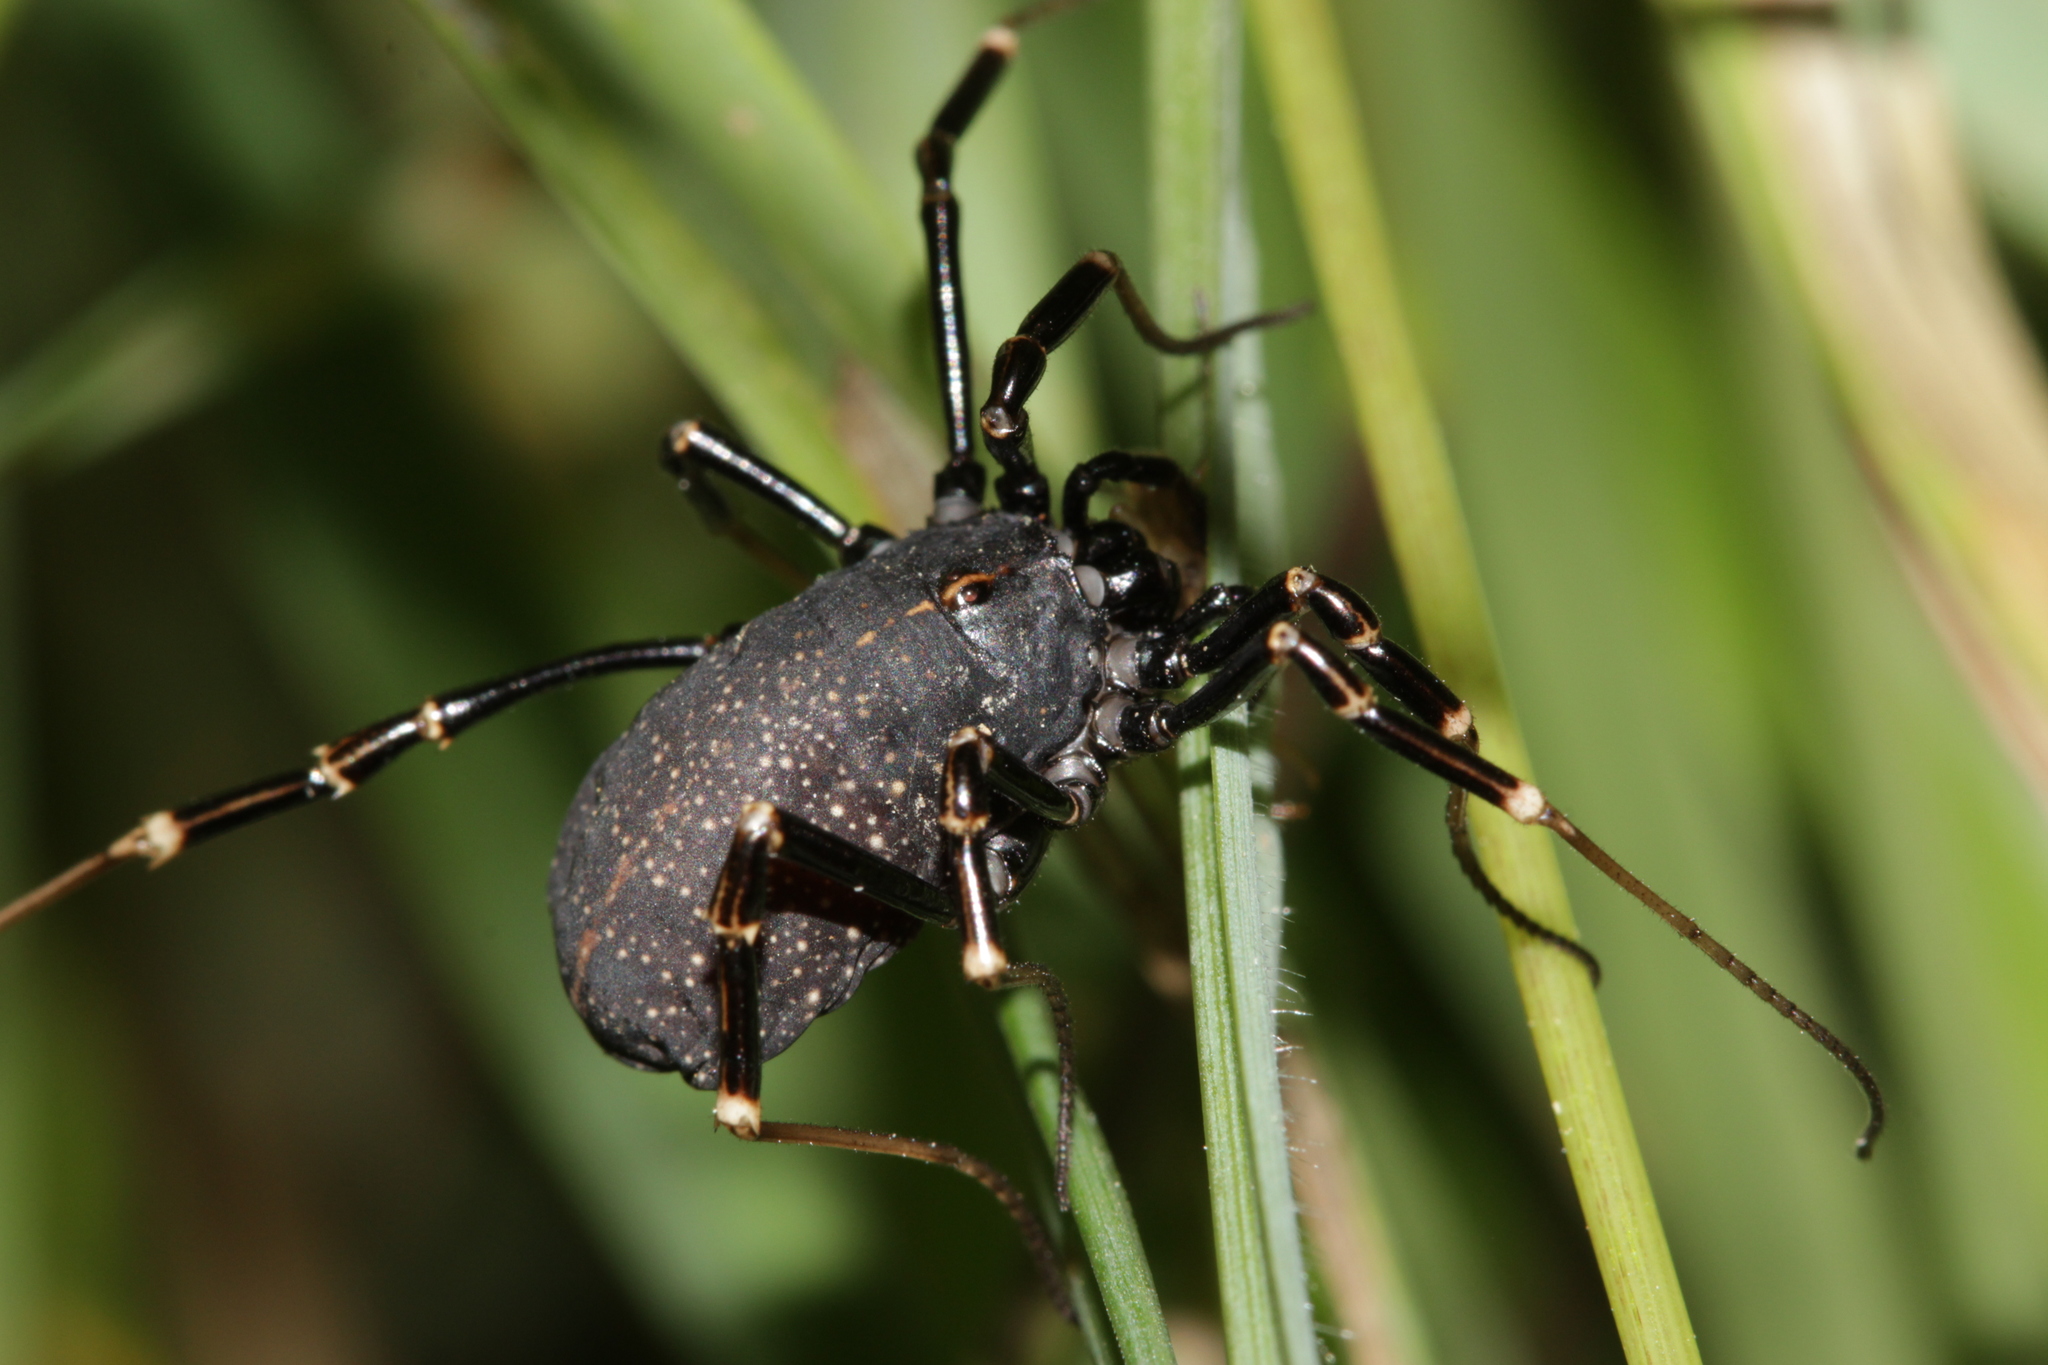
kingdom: Animalia
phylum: Arthropoda
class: Arachnida
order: Opiliones
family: Phalangiidae
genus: Egaenus
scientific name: Egaenus convexus
